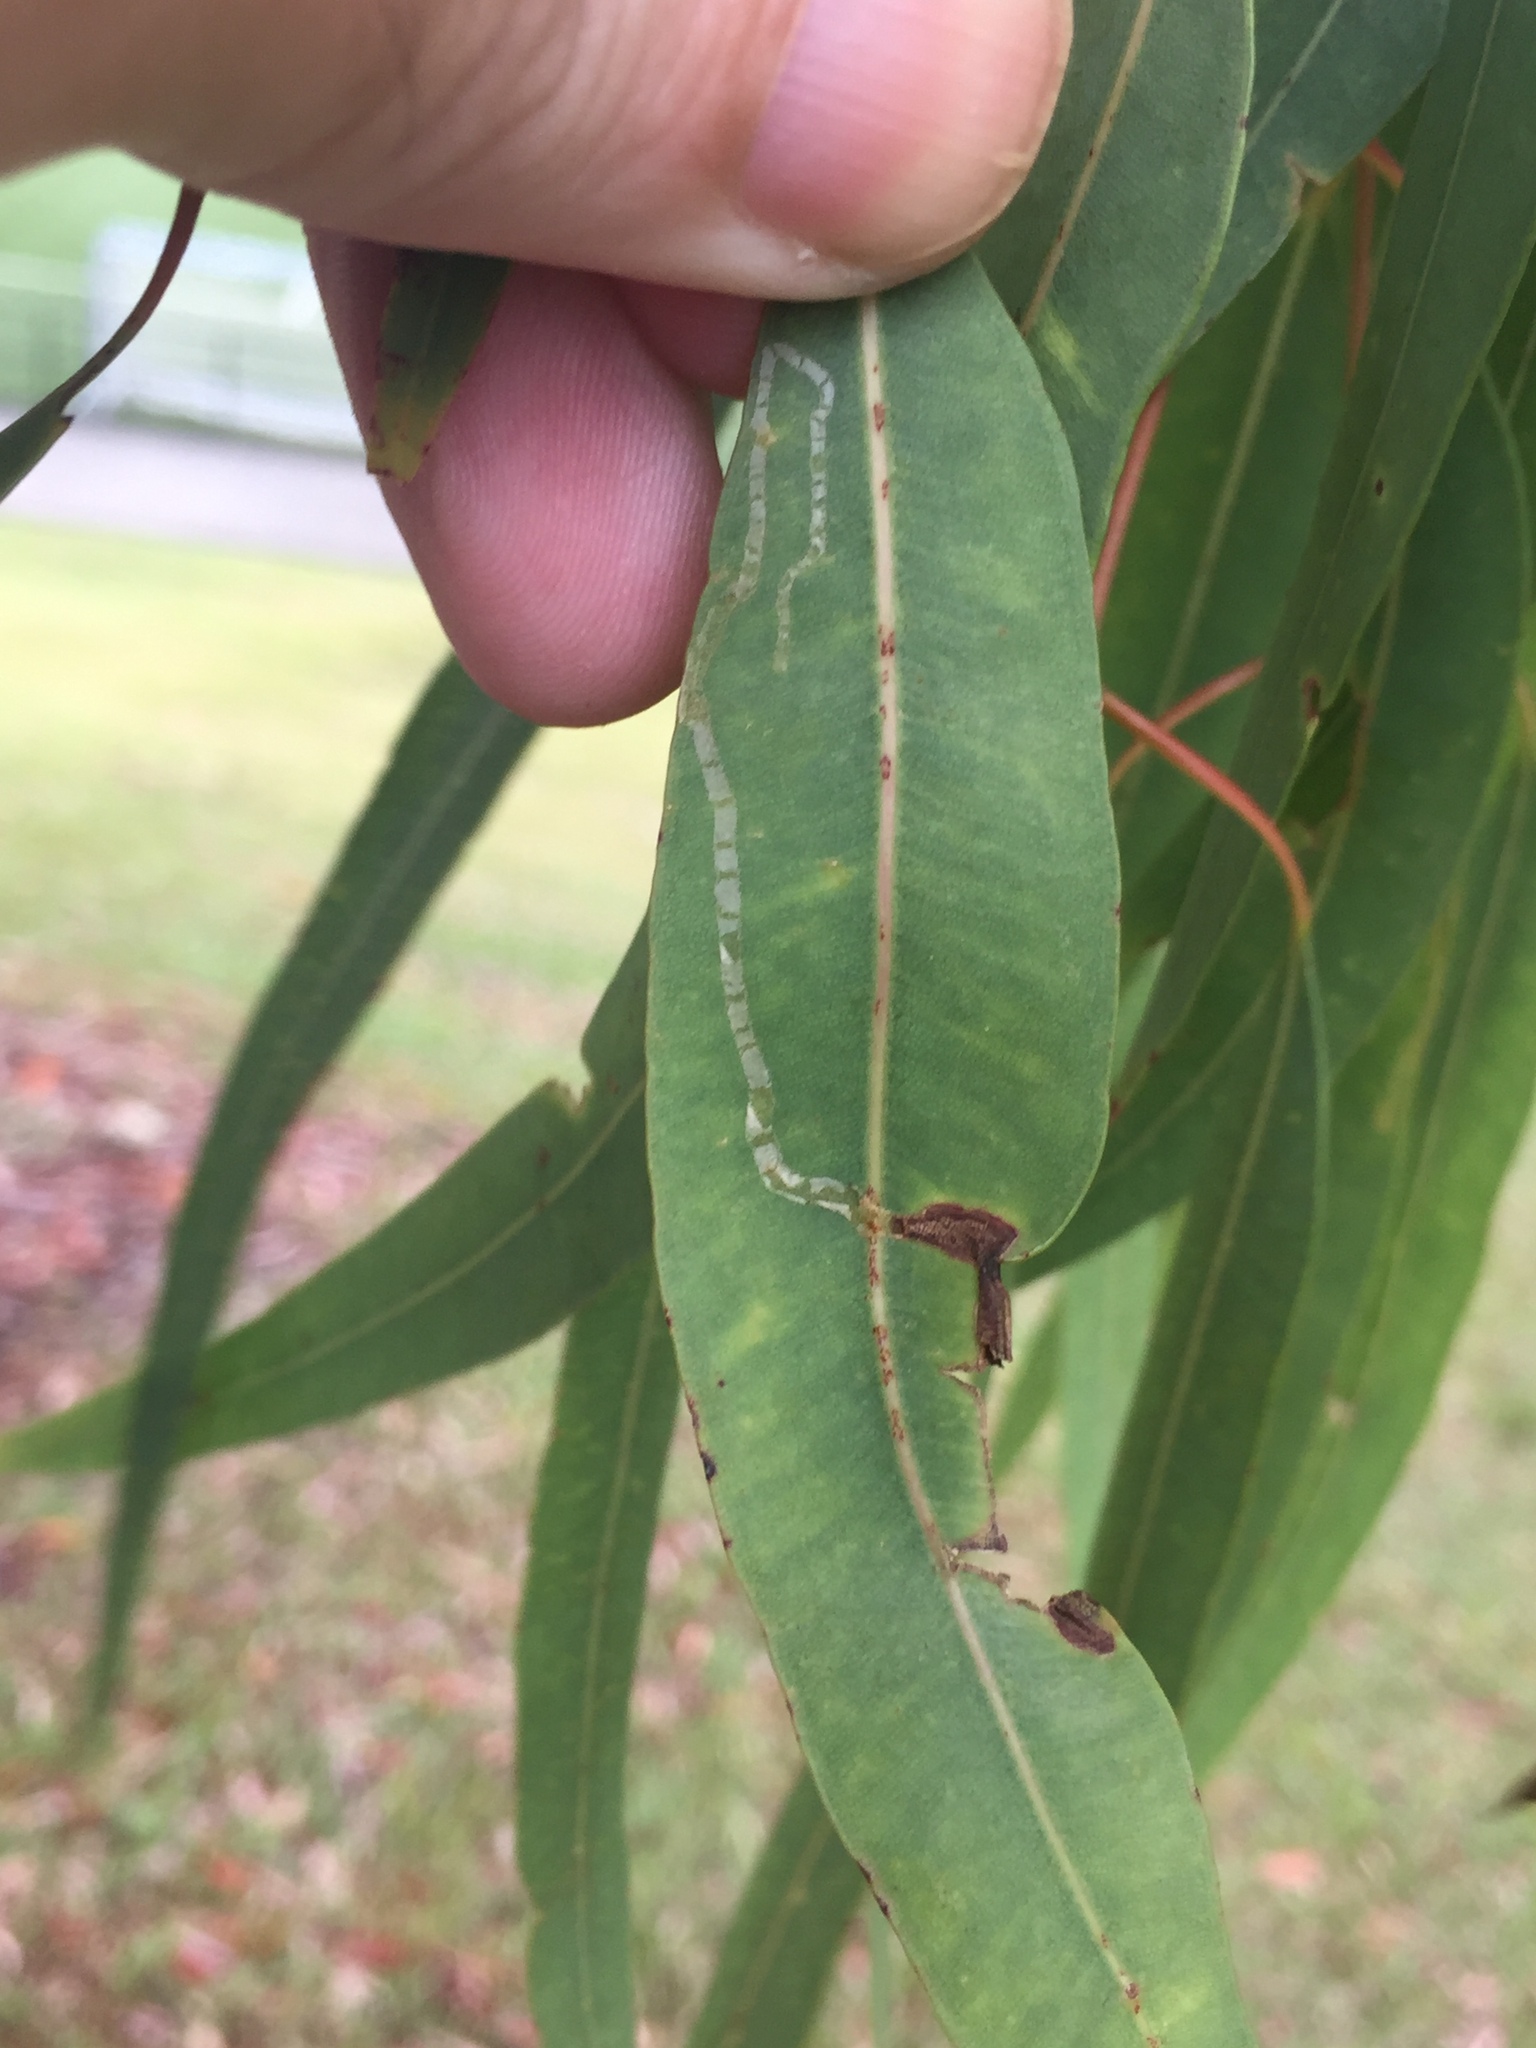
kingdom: Animalia
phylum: Arthropoda
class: Insecta
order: Lepidoptera
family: Gracillariidae
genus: Macarostola
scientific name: Macarostola ida
